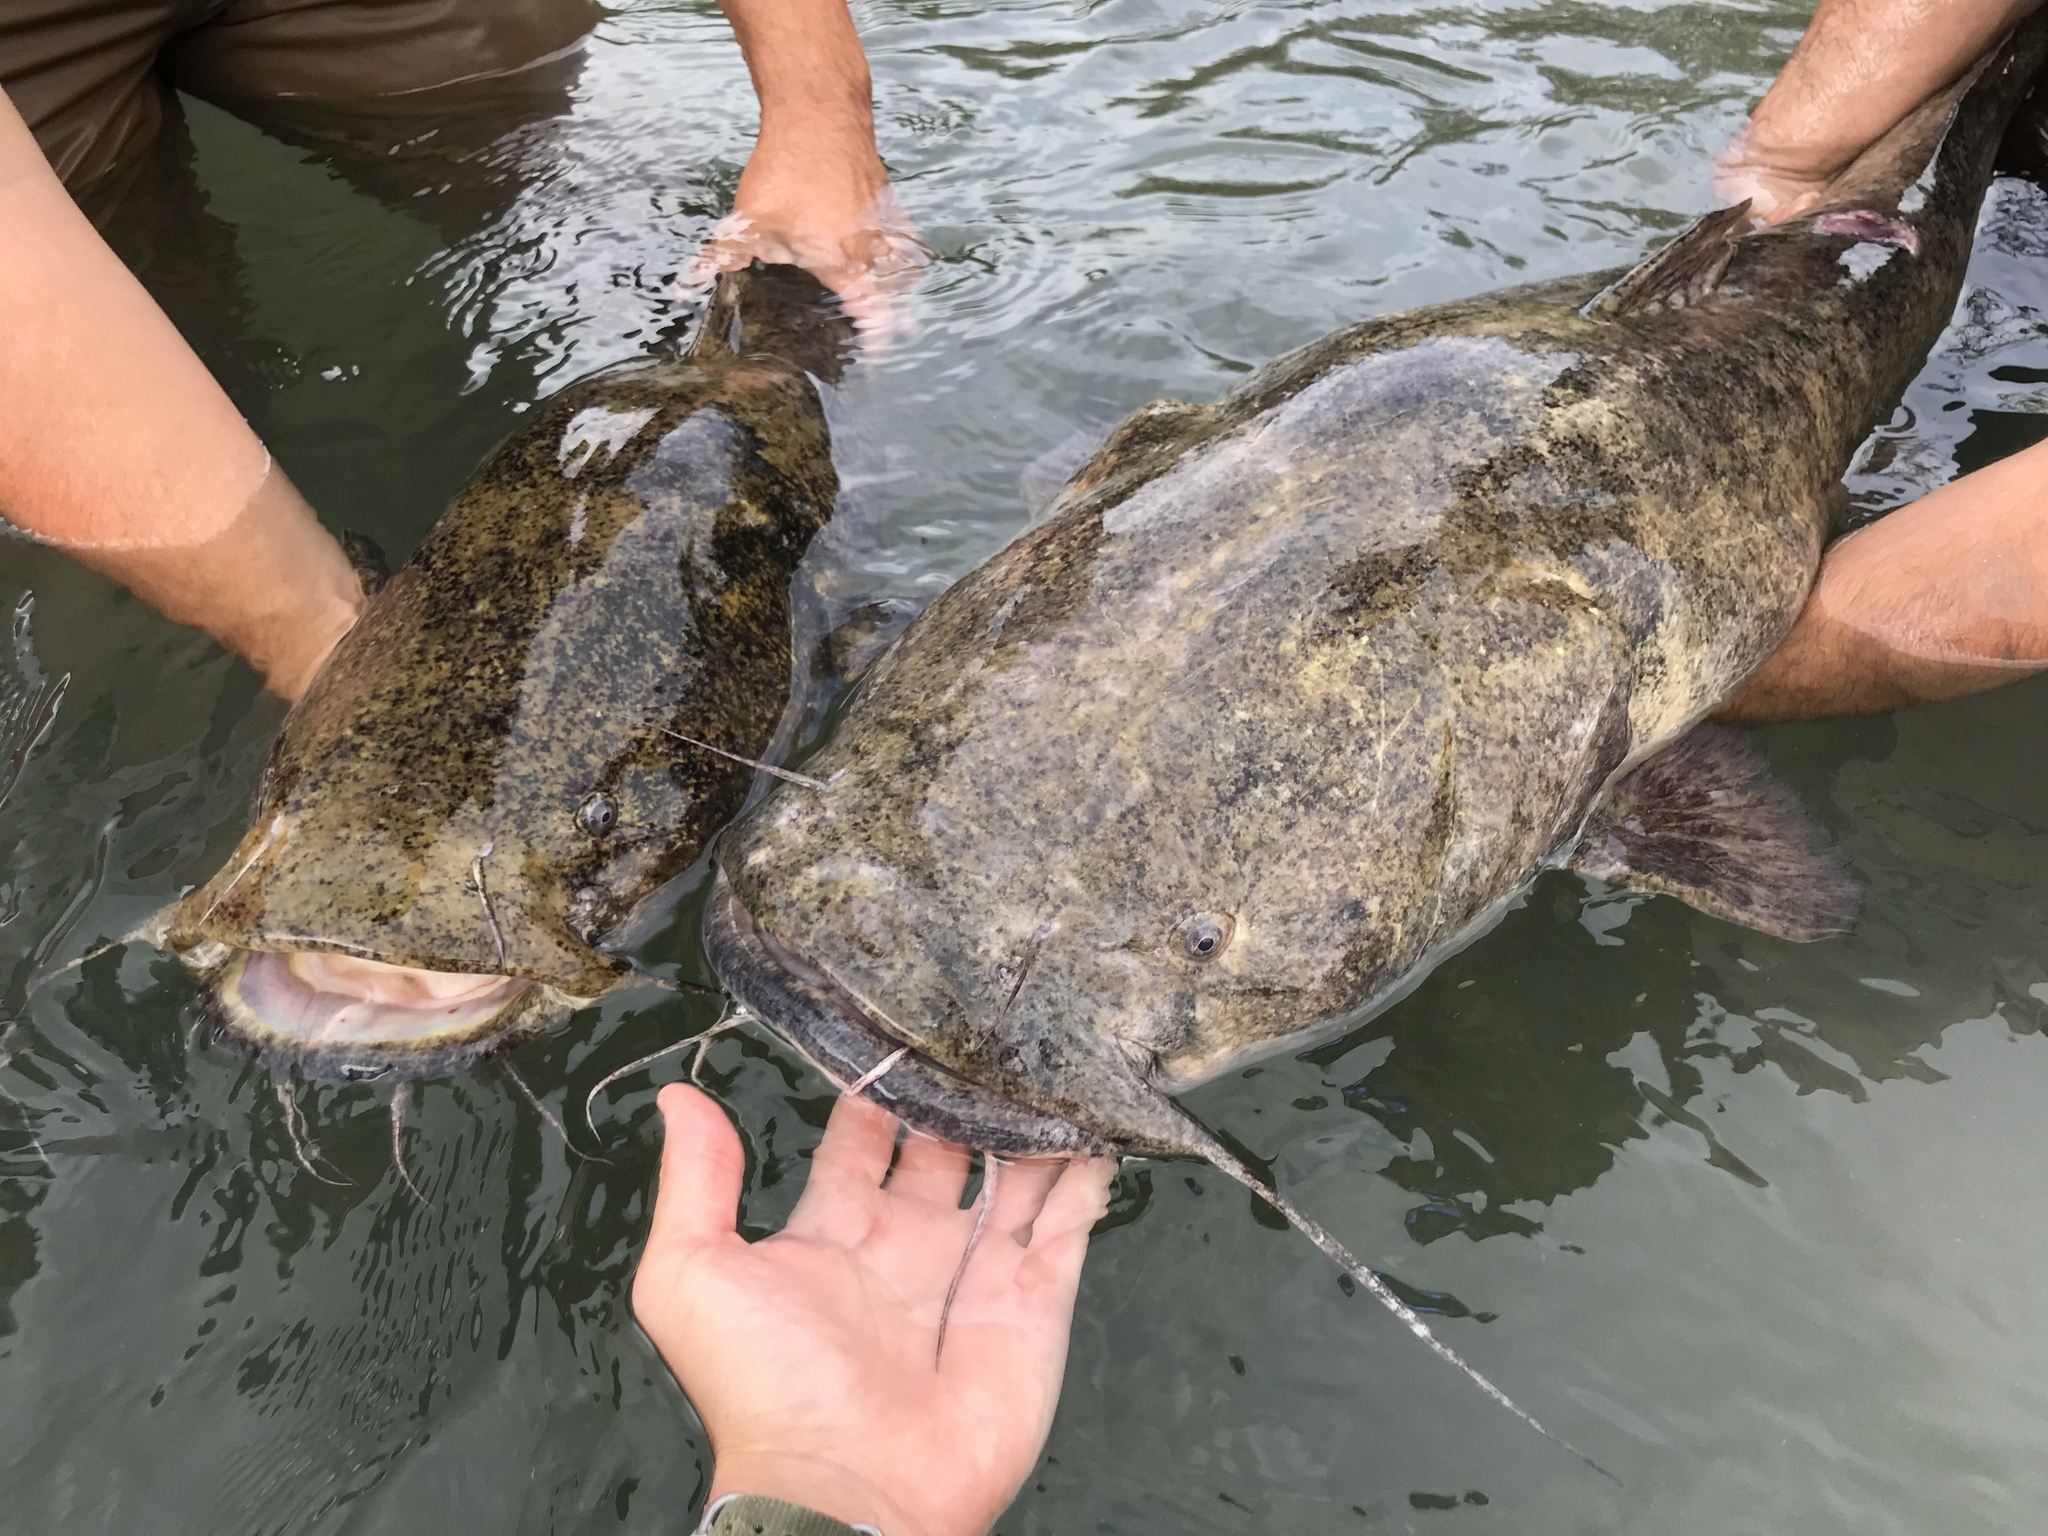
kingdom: Animalia
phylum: Chordata
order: Siluriformes
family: Ictaluridae
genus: Pylodictis
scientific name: Pylodictis olivaris
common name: Flathead catfish
